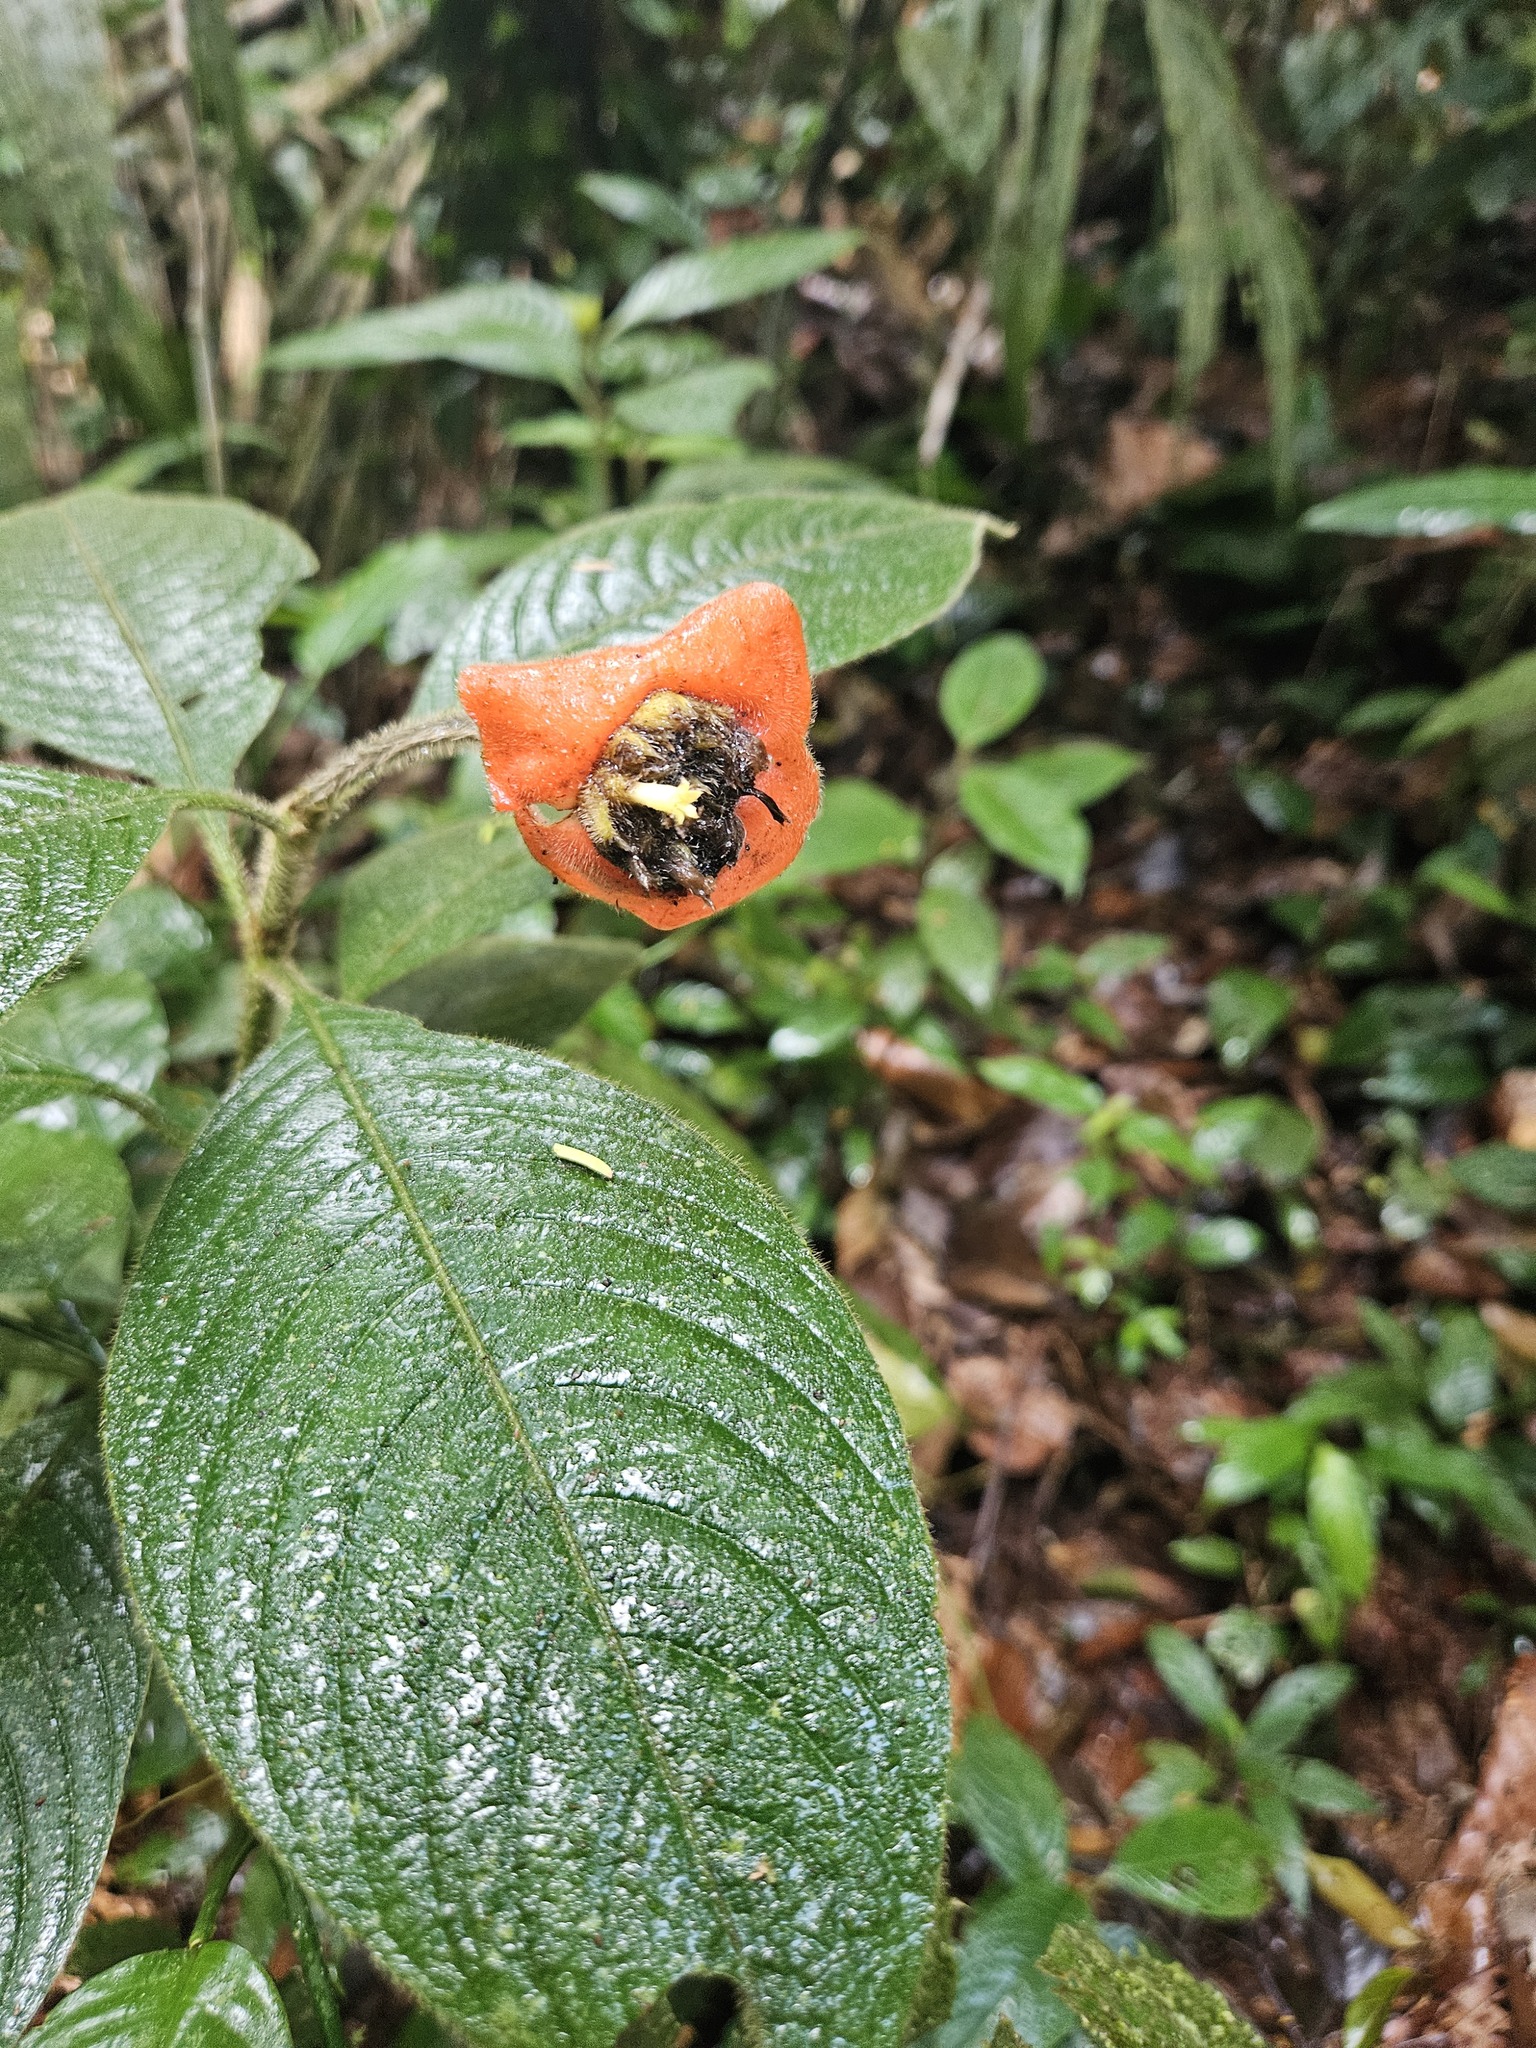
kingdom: Plantae
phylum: Tracheophyta
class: Magnoliopsida
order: Gentianales
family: Rubiaceae
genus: Palicourea
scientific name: Palicourea tomentosa
